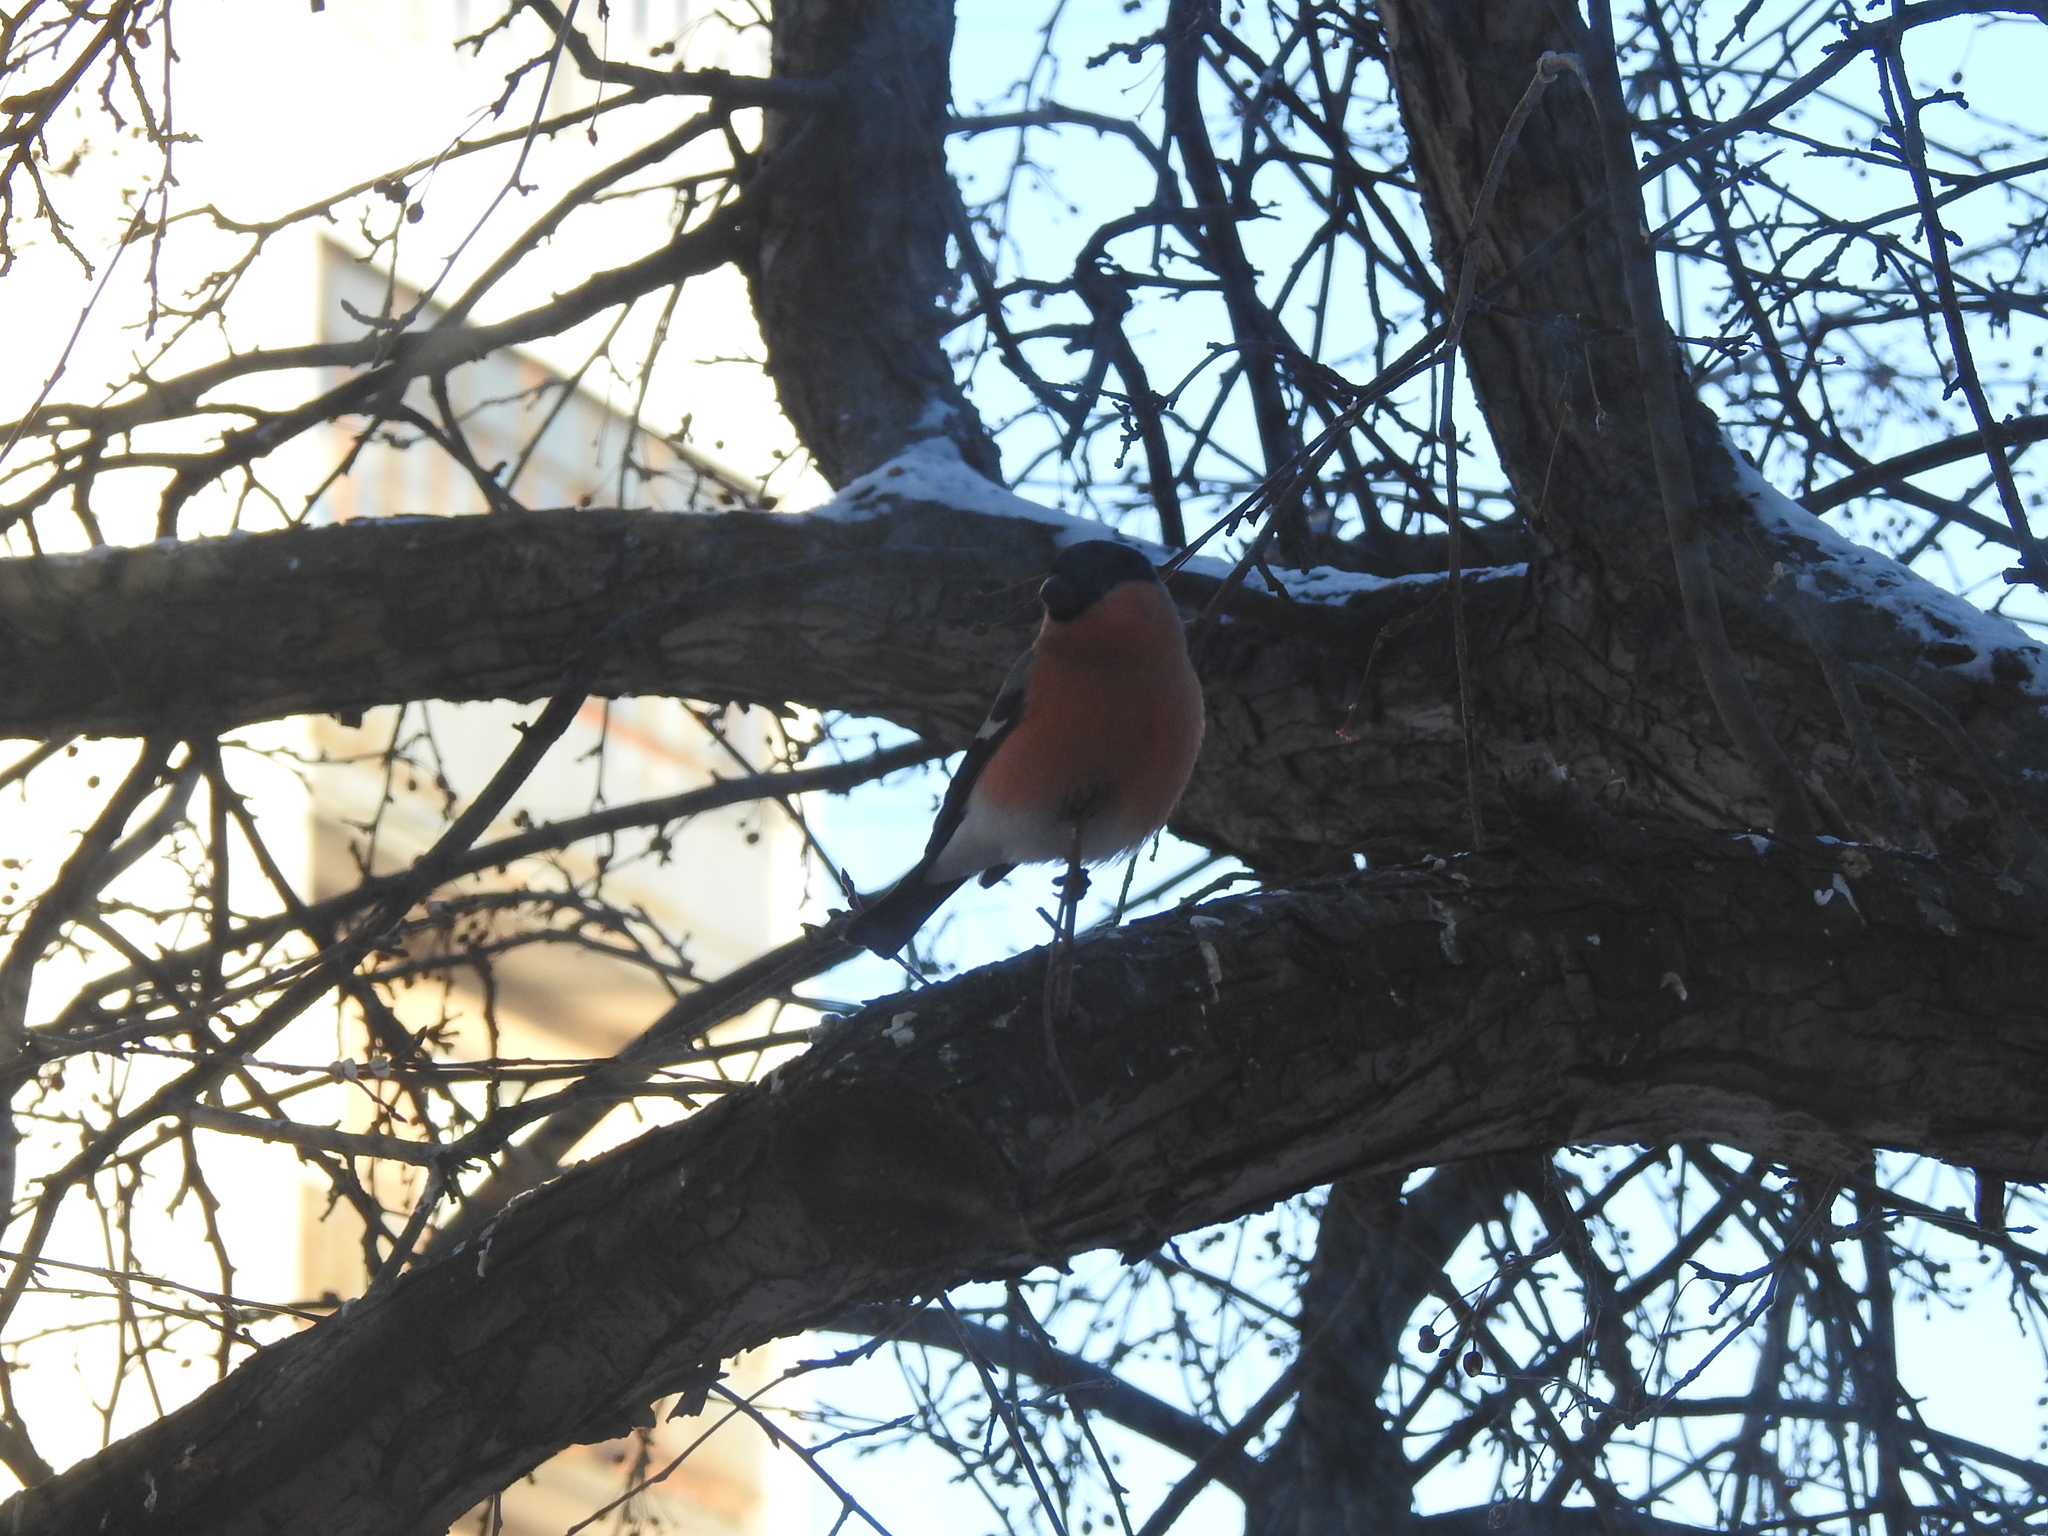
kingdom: Animalia
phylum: Chordata
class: Aves
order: Passeriformes
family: Fringillidae
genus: Pyrrhula
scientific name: Pyrrhula pyrrhula
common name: Eurasian bullfinch
